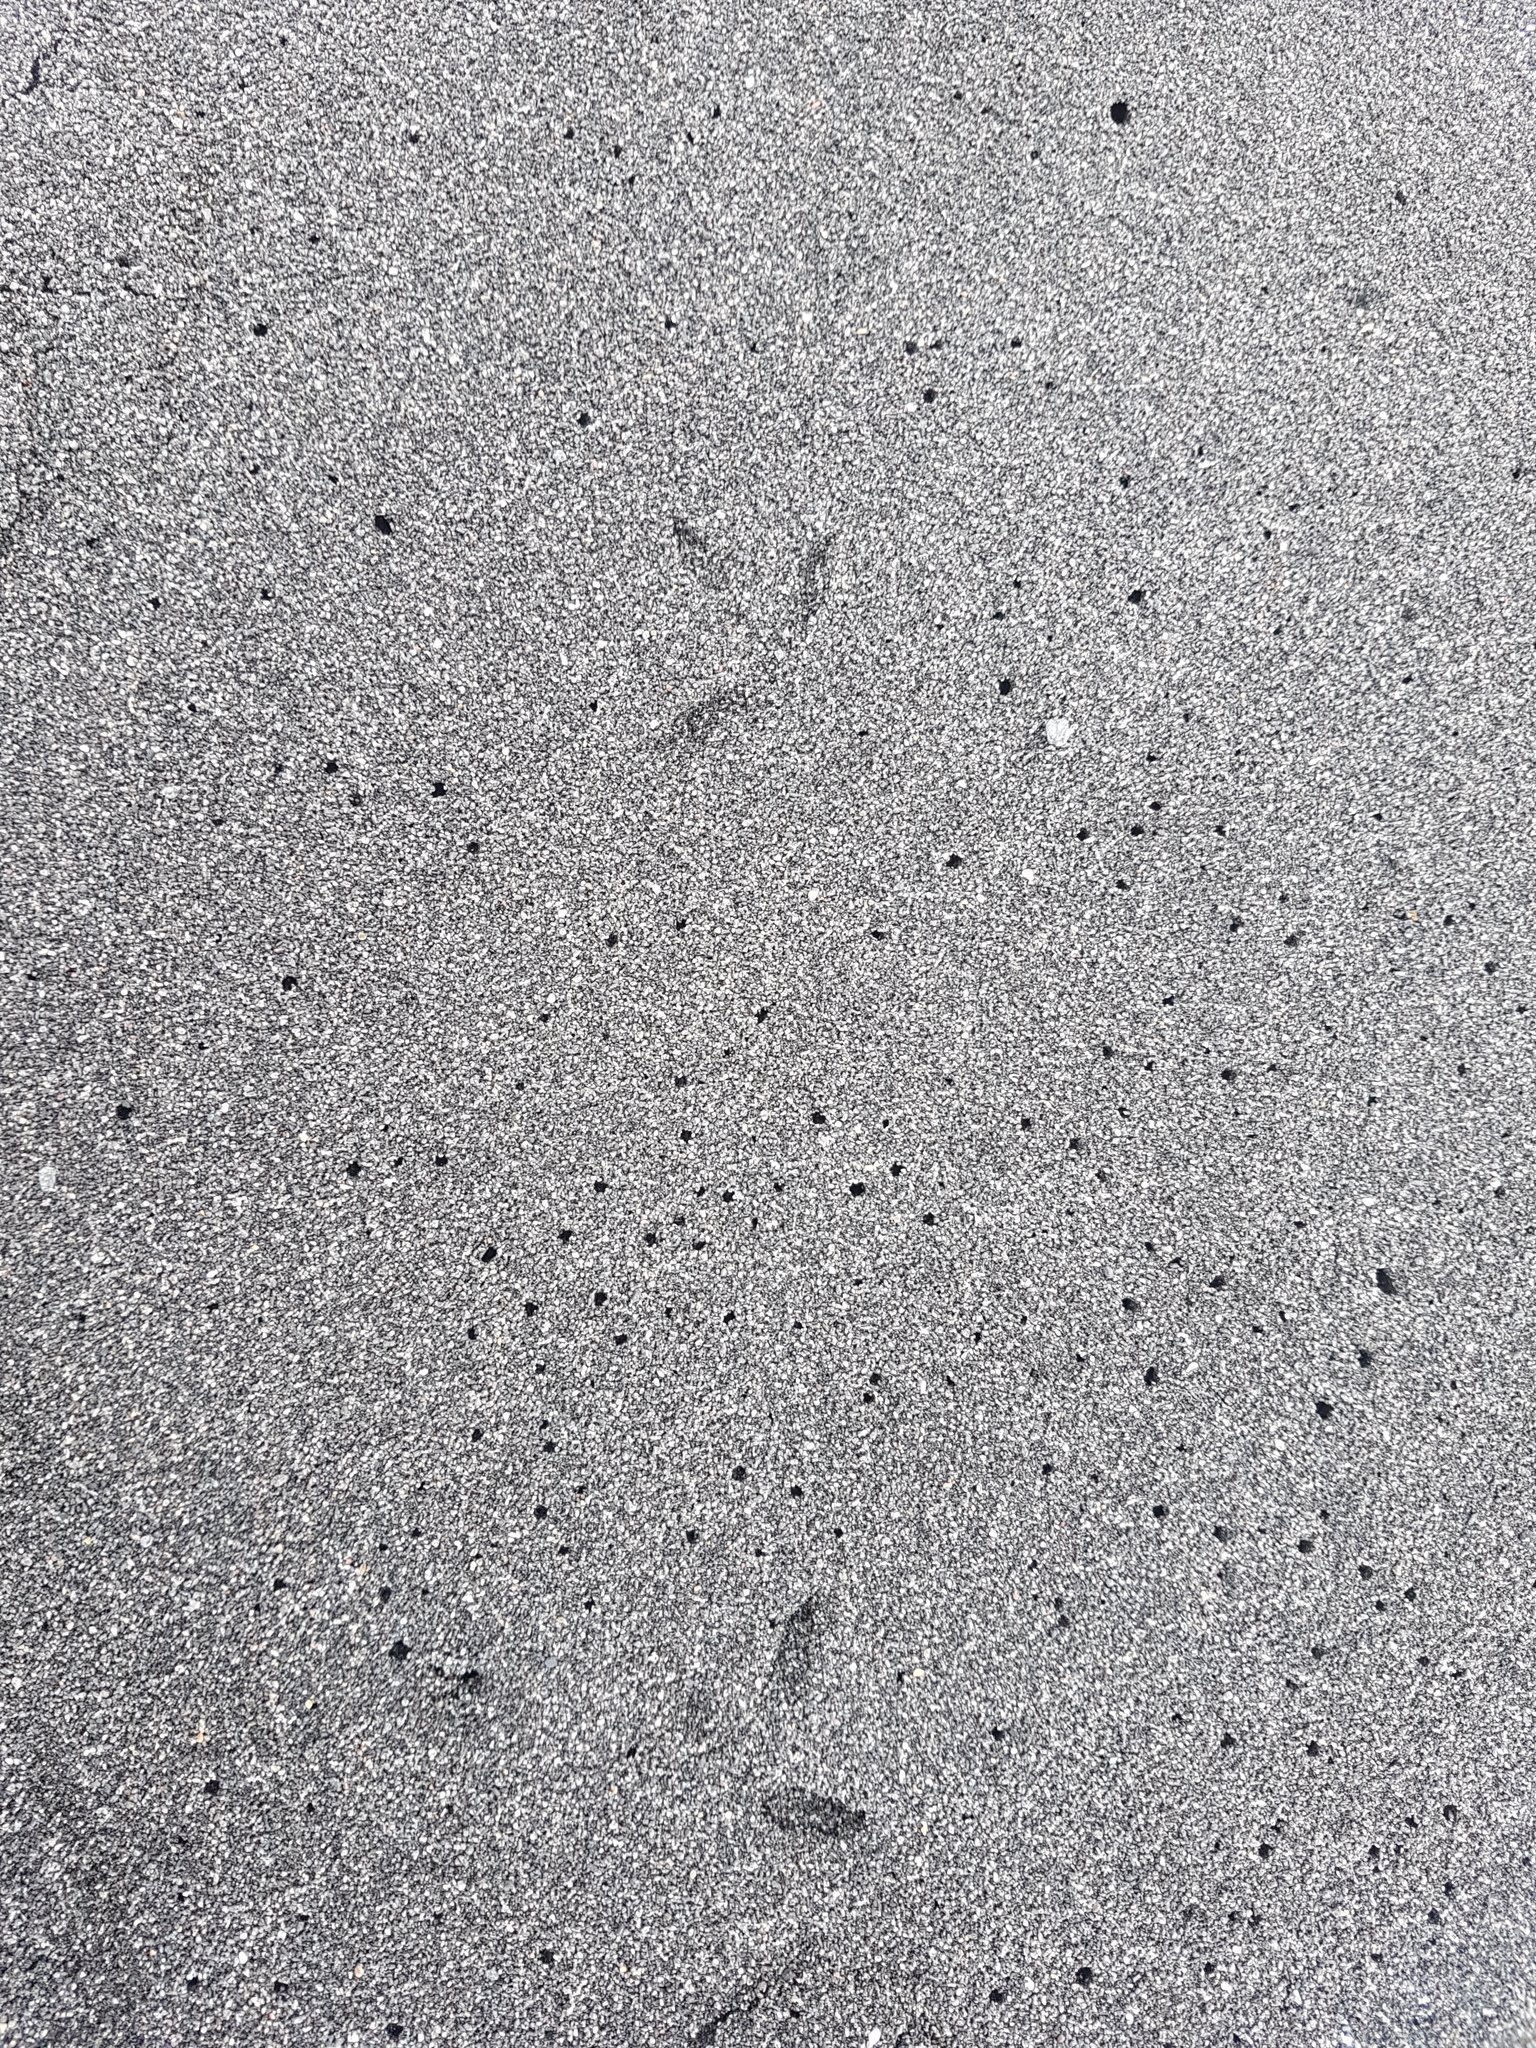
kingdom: Animalia
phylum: Chordata
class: Aves
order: Charadriiformes
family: Charadriidae
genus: Anarhynchus
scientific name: Anarhynchus
